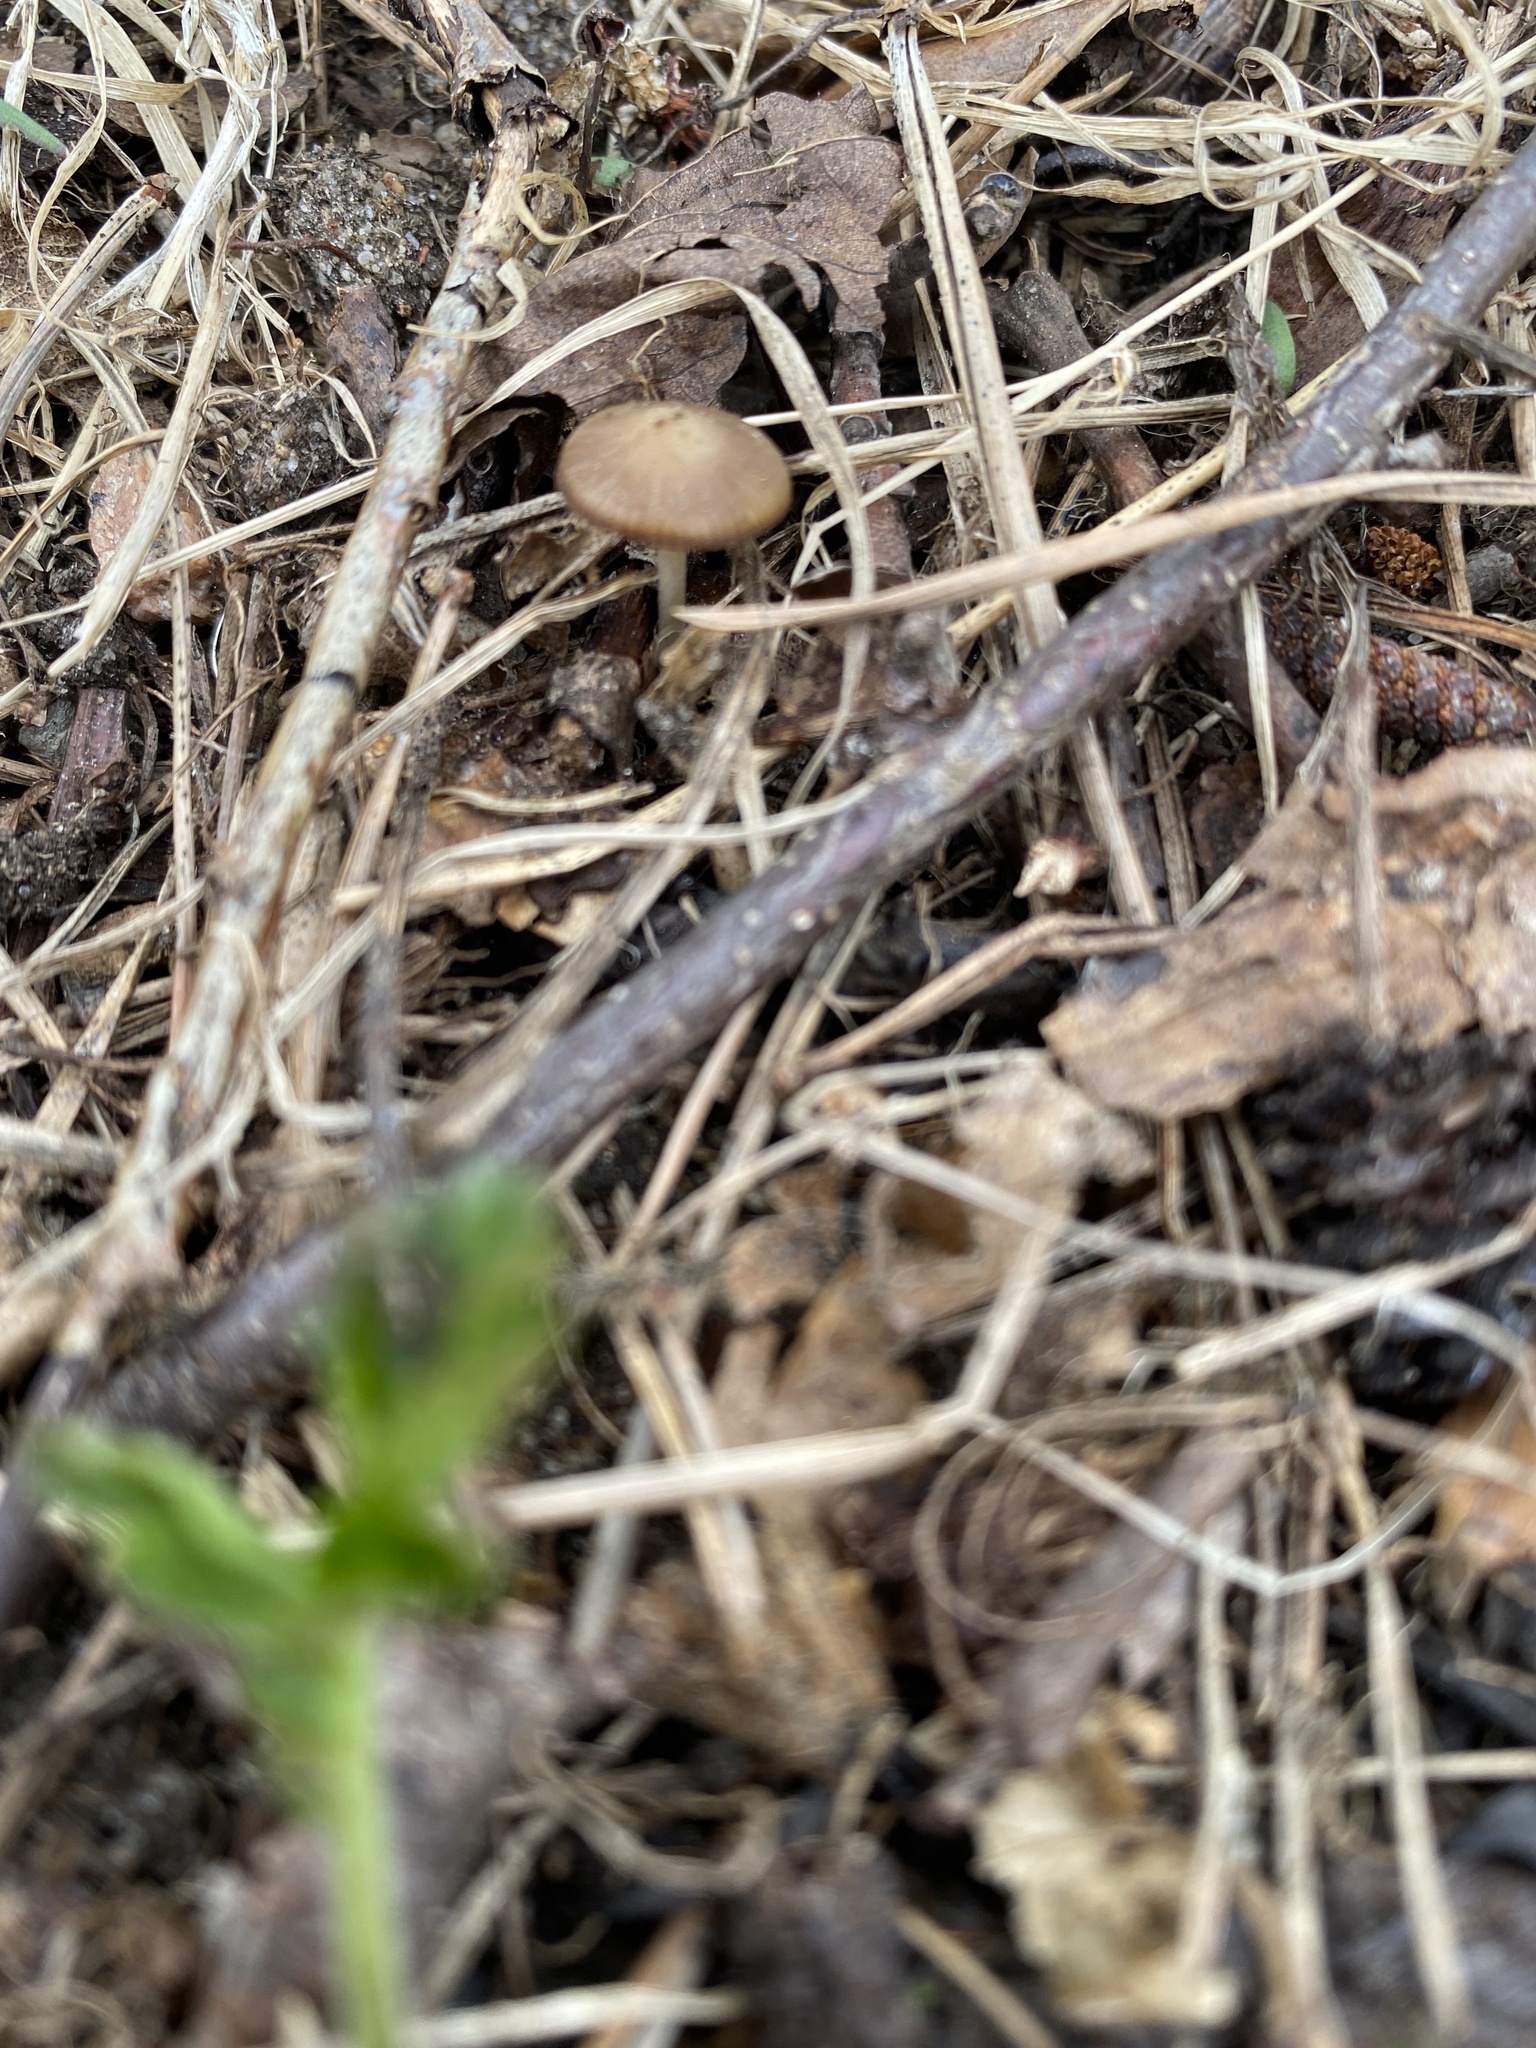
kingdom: Fungi
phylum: Basidiomycota
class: Agaricomycetes
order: Agaricales
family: Physalacriaceae
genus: Strobilurus
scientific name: Strobilurus
